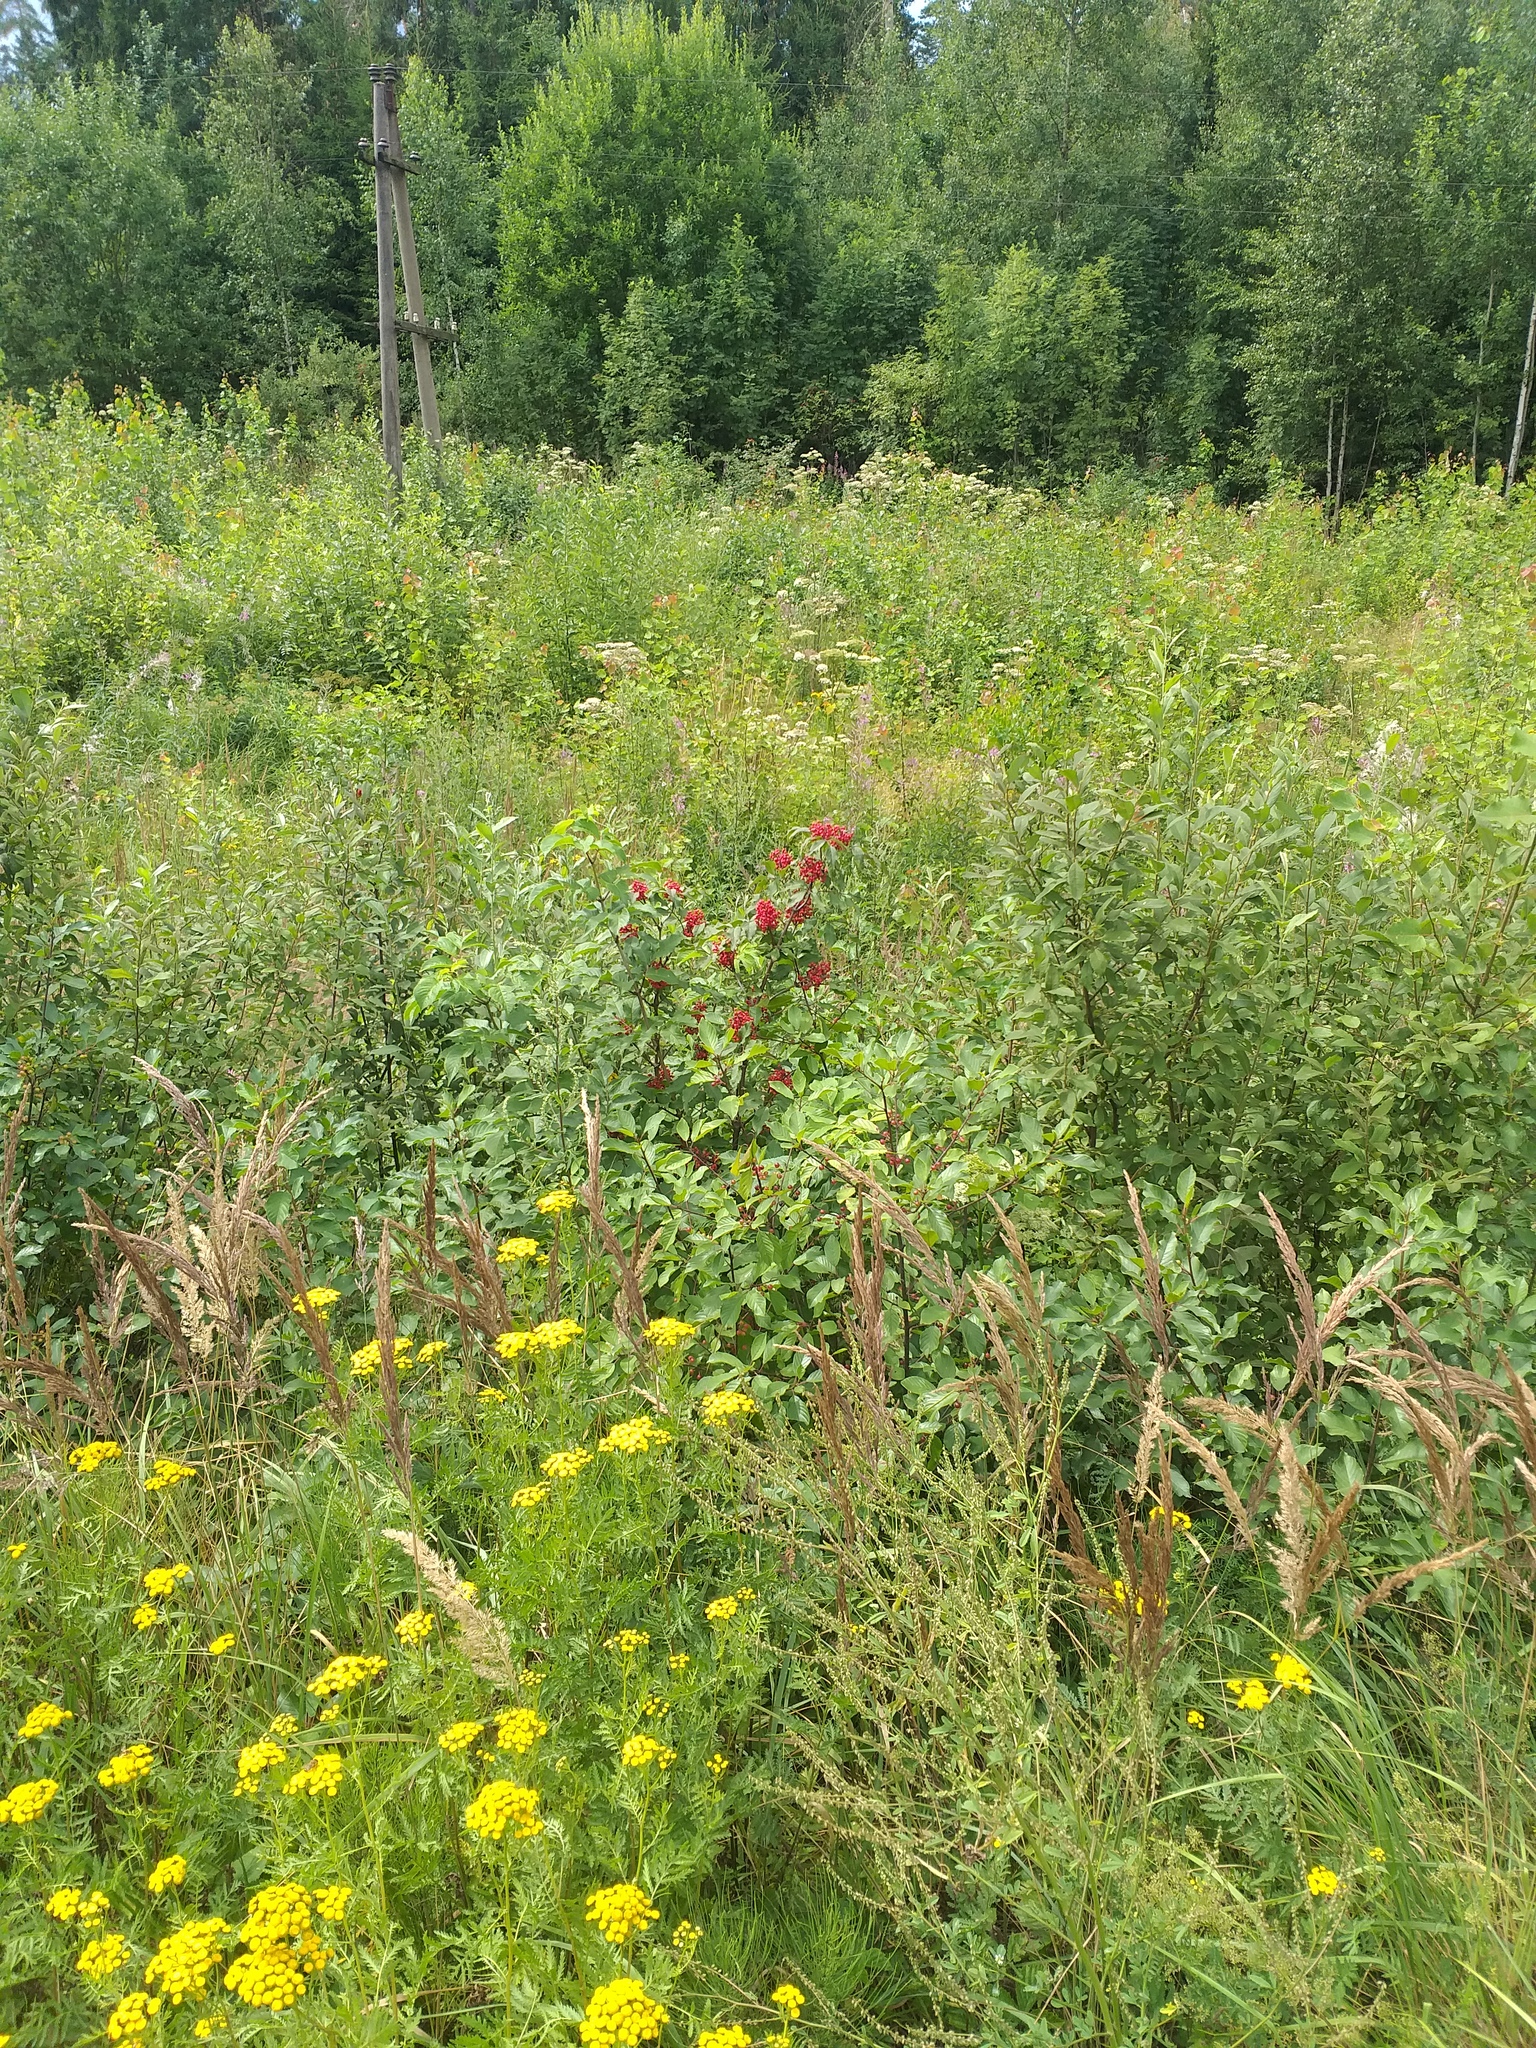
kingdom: Plantae
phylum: Tracheophyta
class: Magnoliopsida
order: Dipsacales
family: Viburnaceae
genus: Sambucus
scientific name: Sambucus racemosa
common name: Red-berried elder
